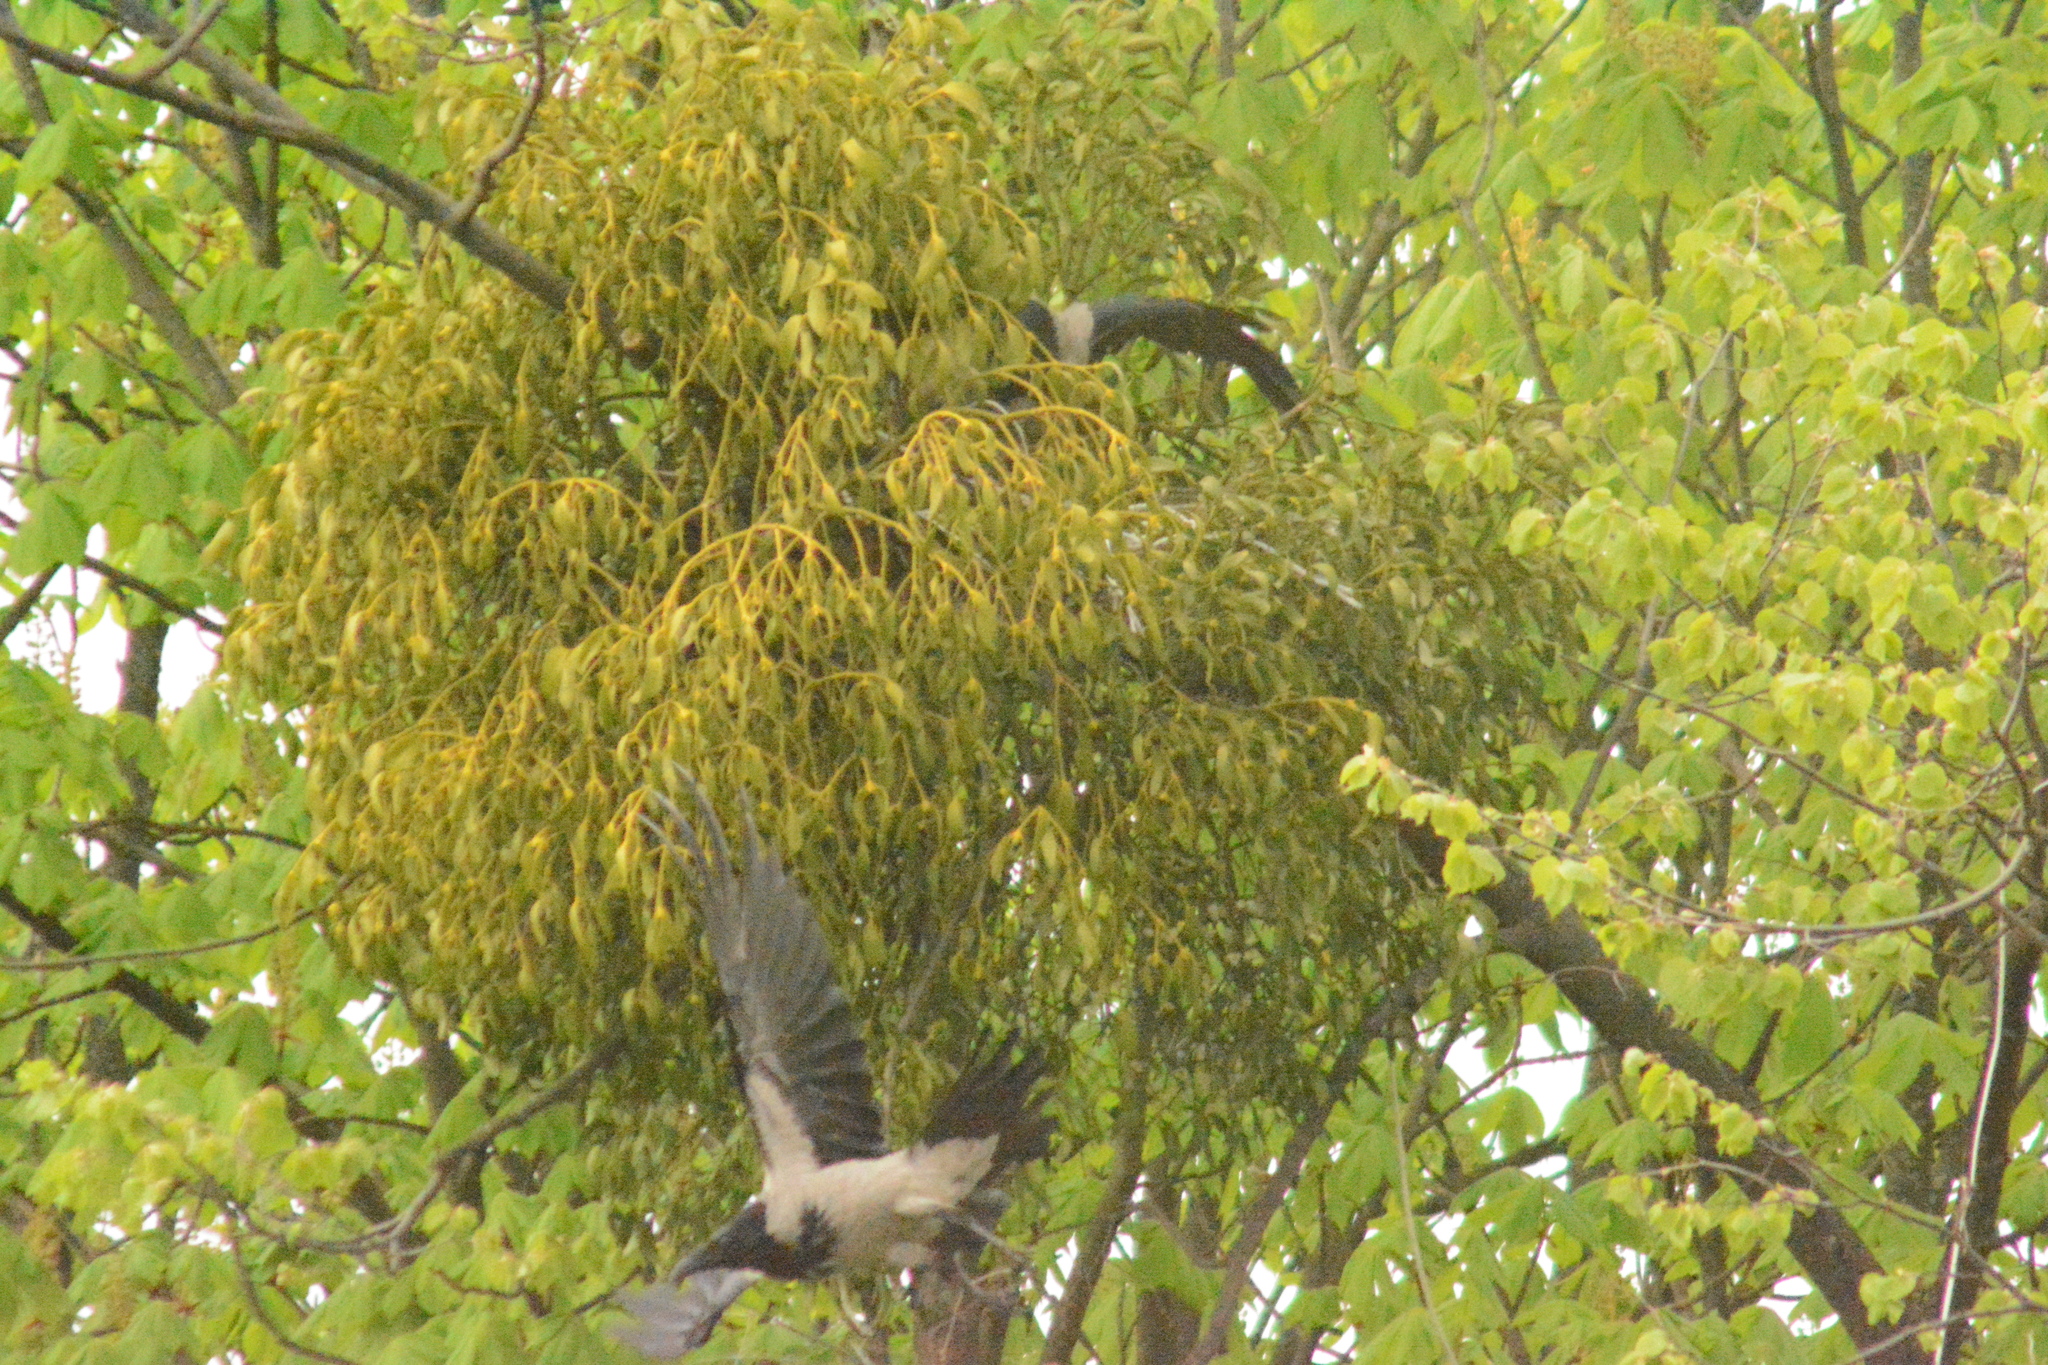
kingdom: Animalia
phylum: Chordata
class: Aves
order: Passeriformes
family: Corvidae
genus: Corvus
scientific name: Corvus cornix
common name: Hooded crow
